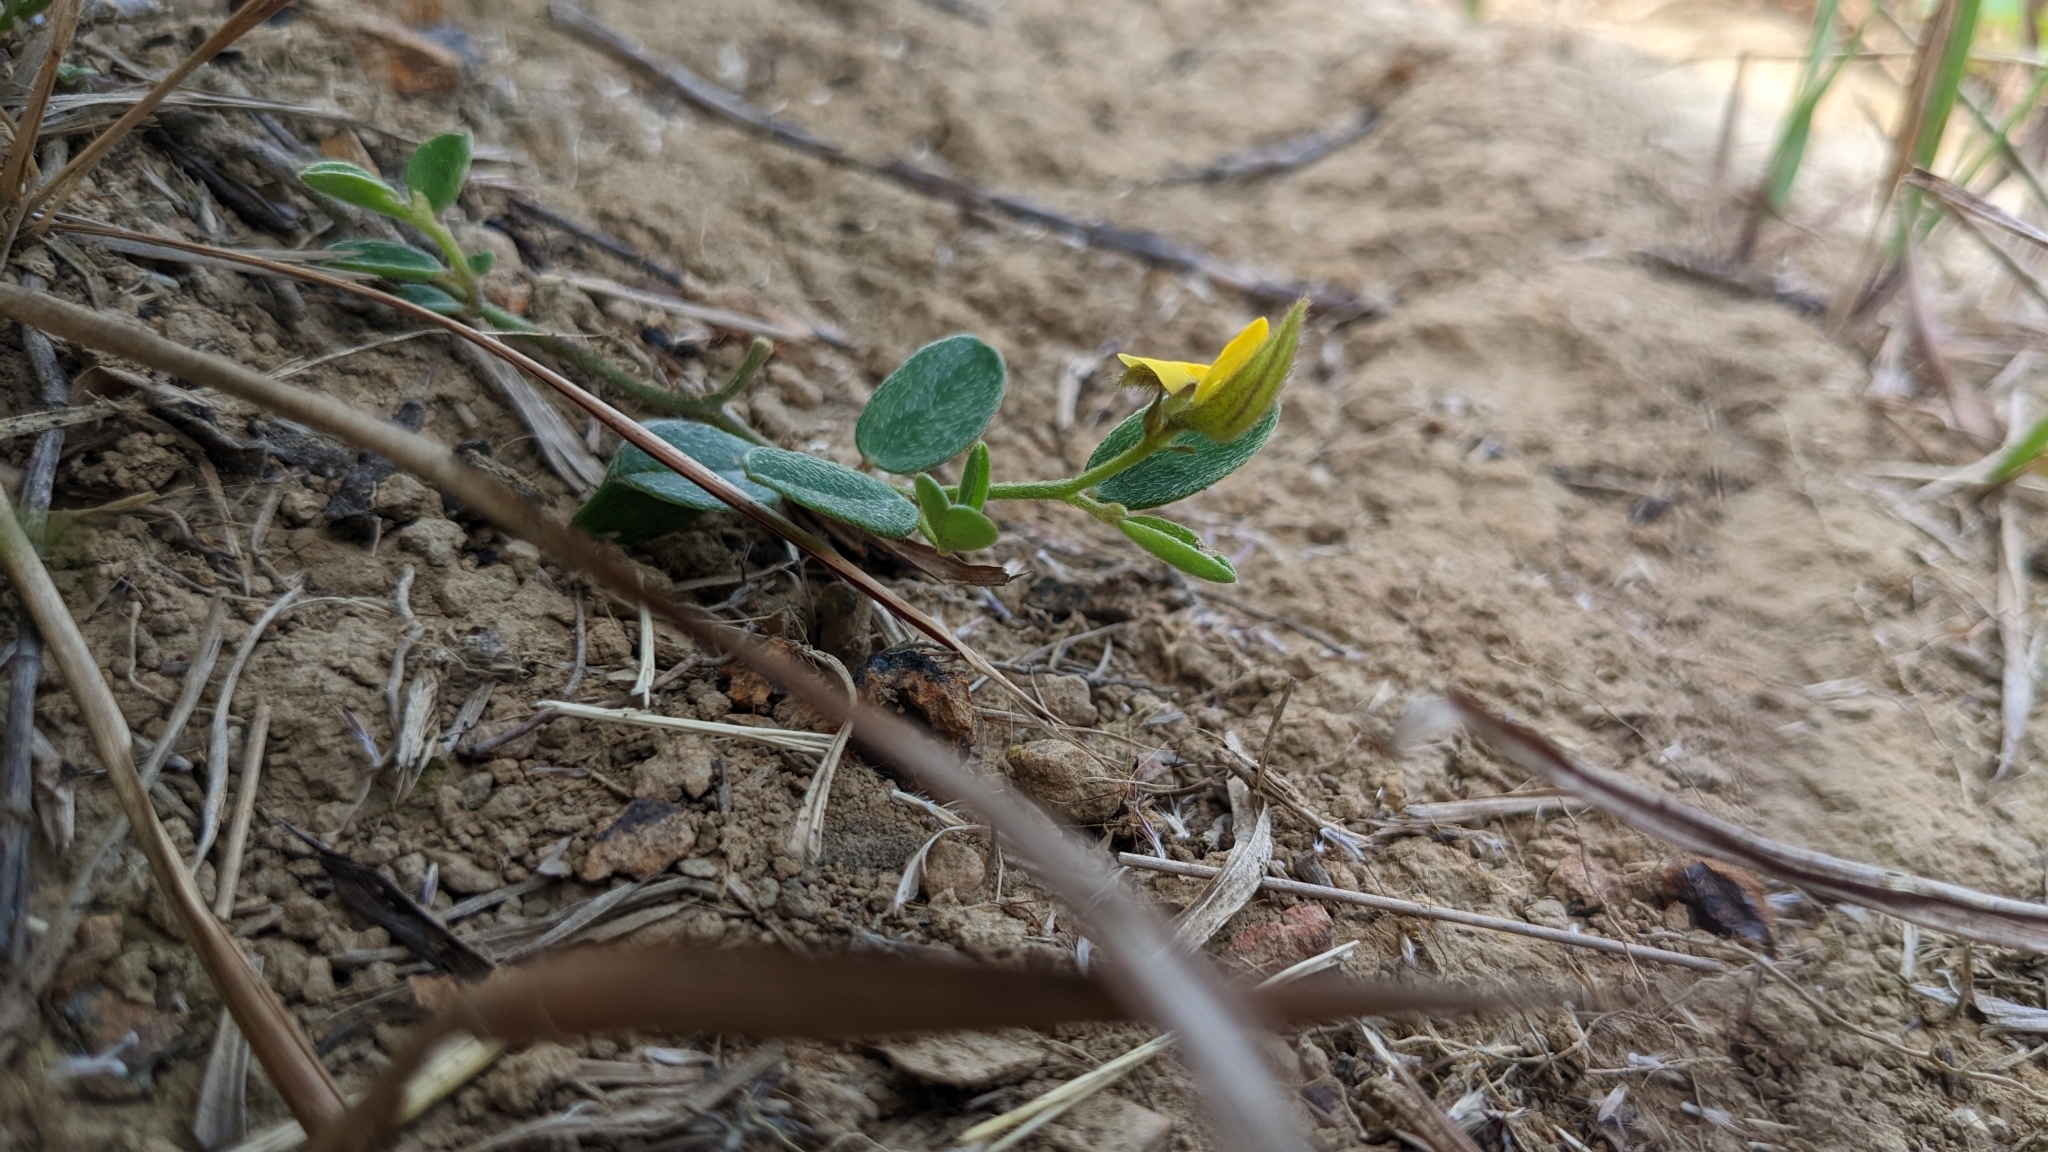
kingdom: Plantae
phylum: Tracheophyta
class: Magnoliopsida
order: Fabales
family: Fabaceae
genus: Crotalaria
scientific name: Crotalaria chinensis
